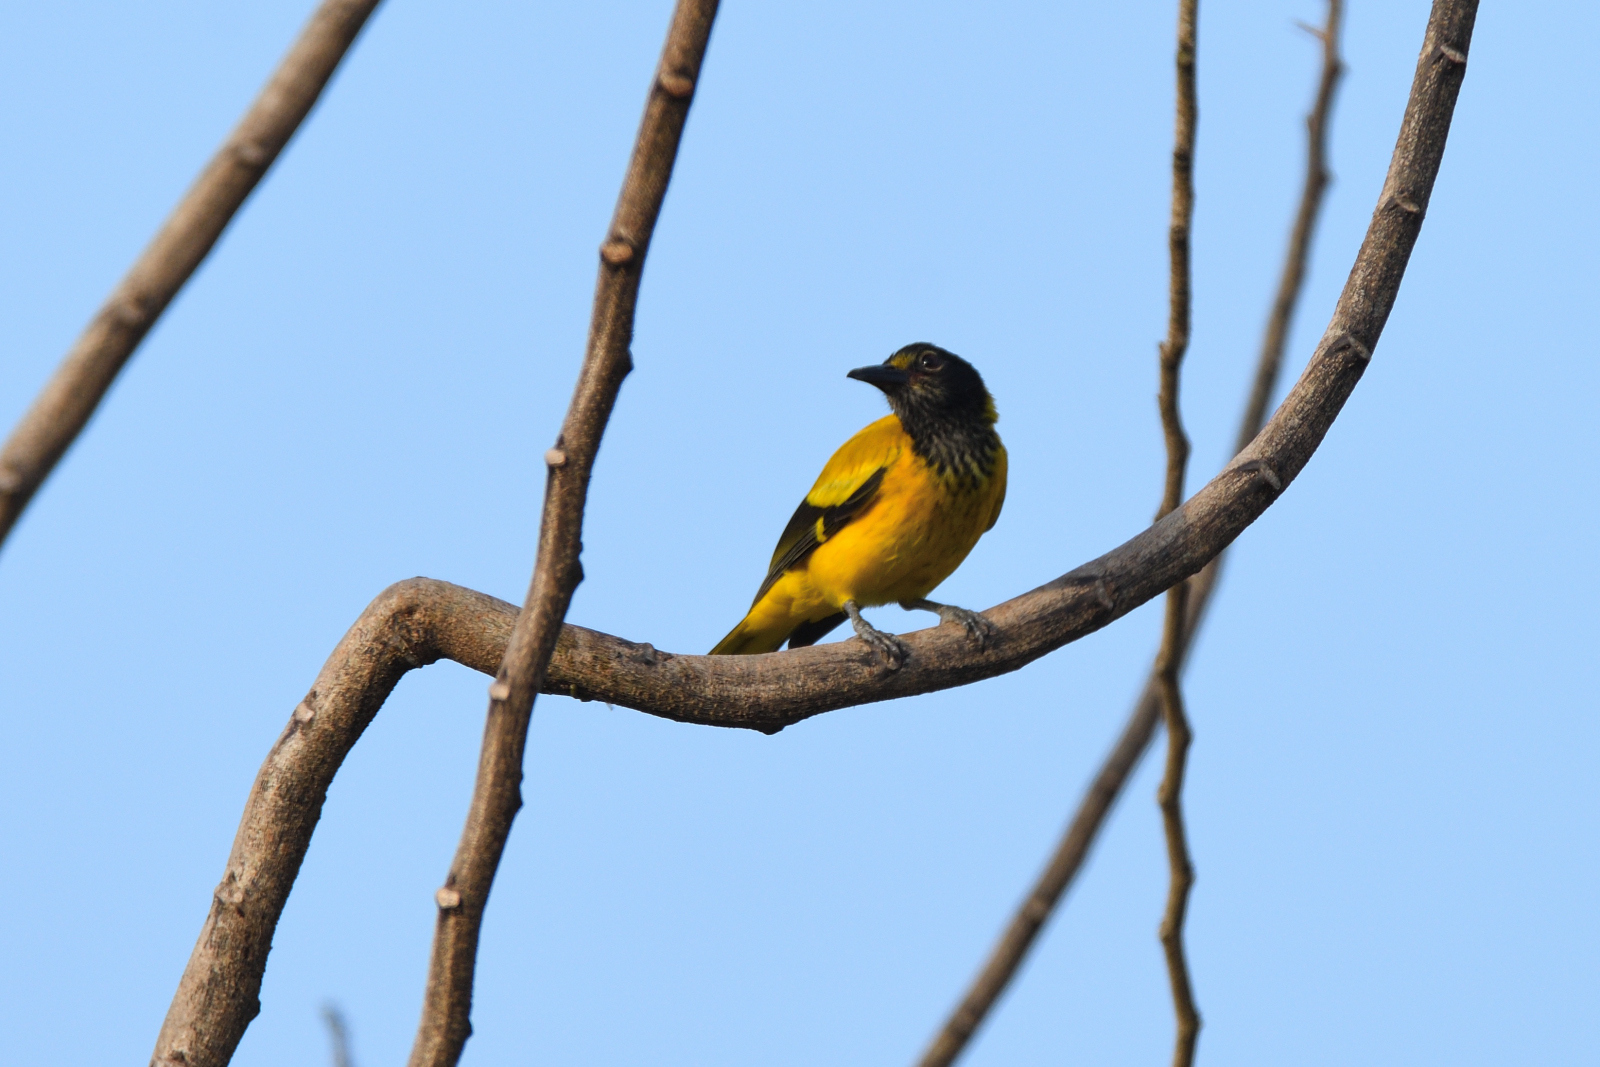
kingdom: Animalia
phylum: Chordata
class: Aves
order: Passeriformes
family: Oriolidae
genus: Oriolus
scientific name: Oriolus xanthornus
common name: Black-hooded oriole
